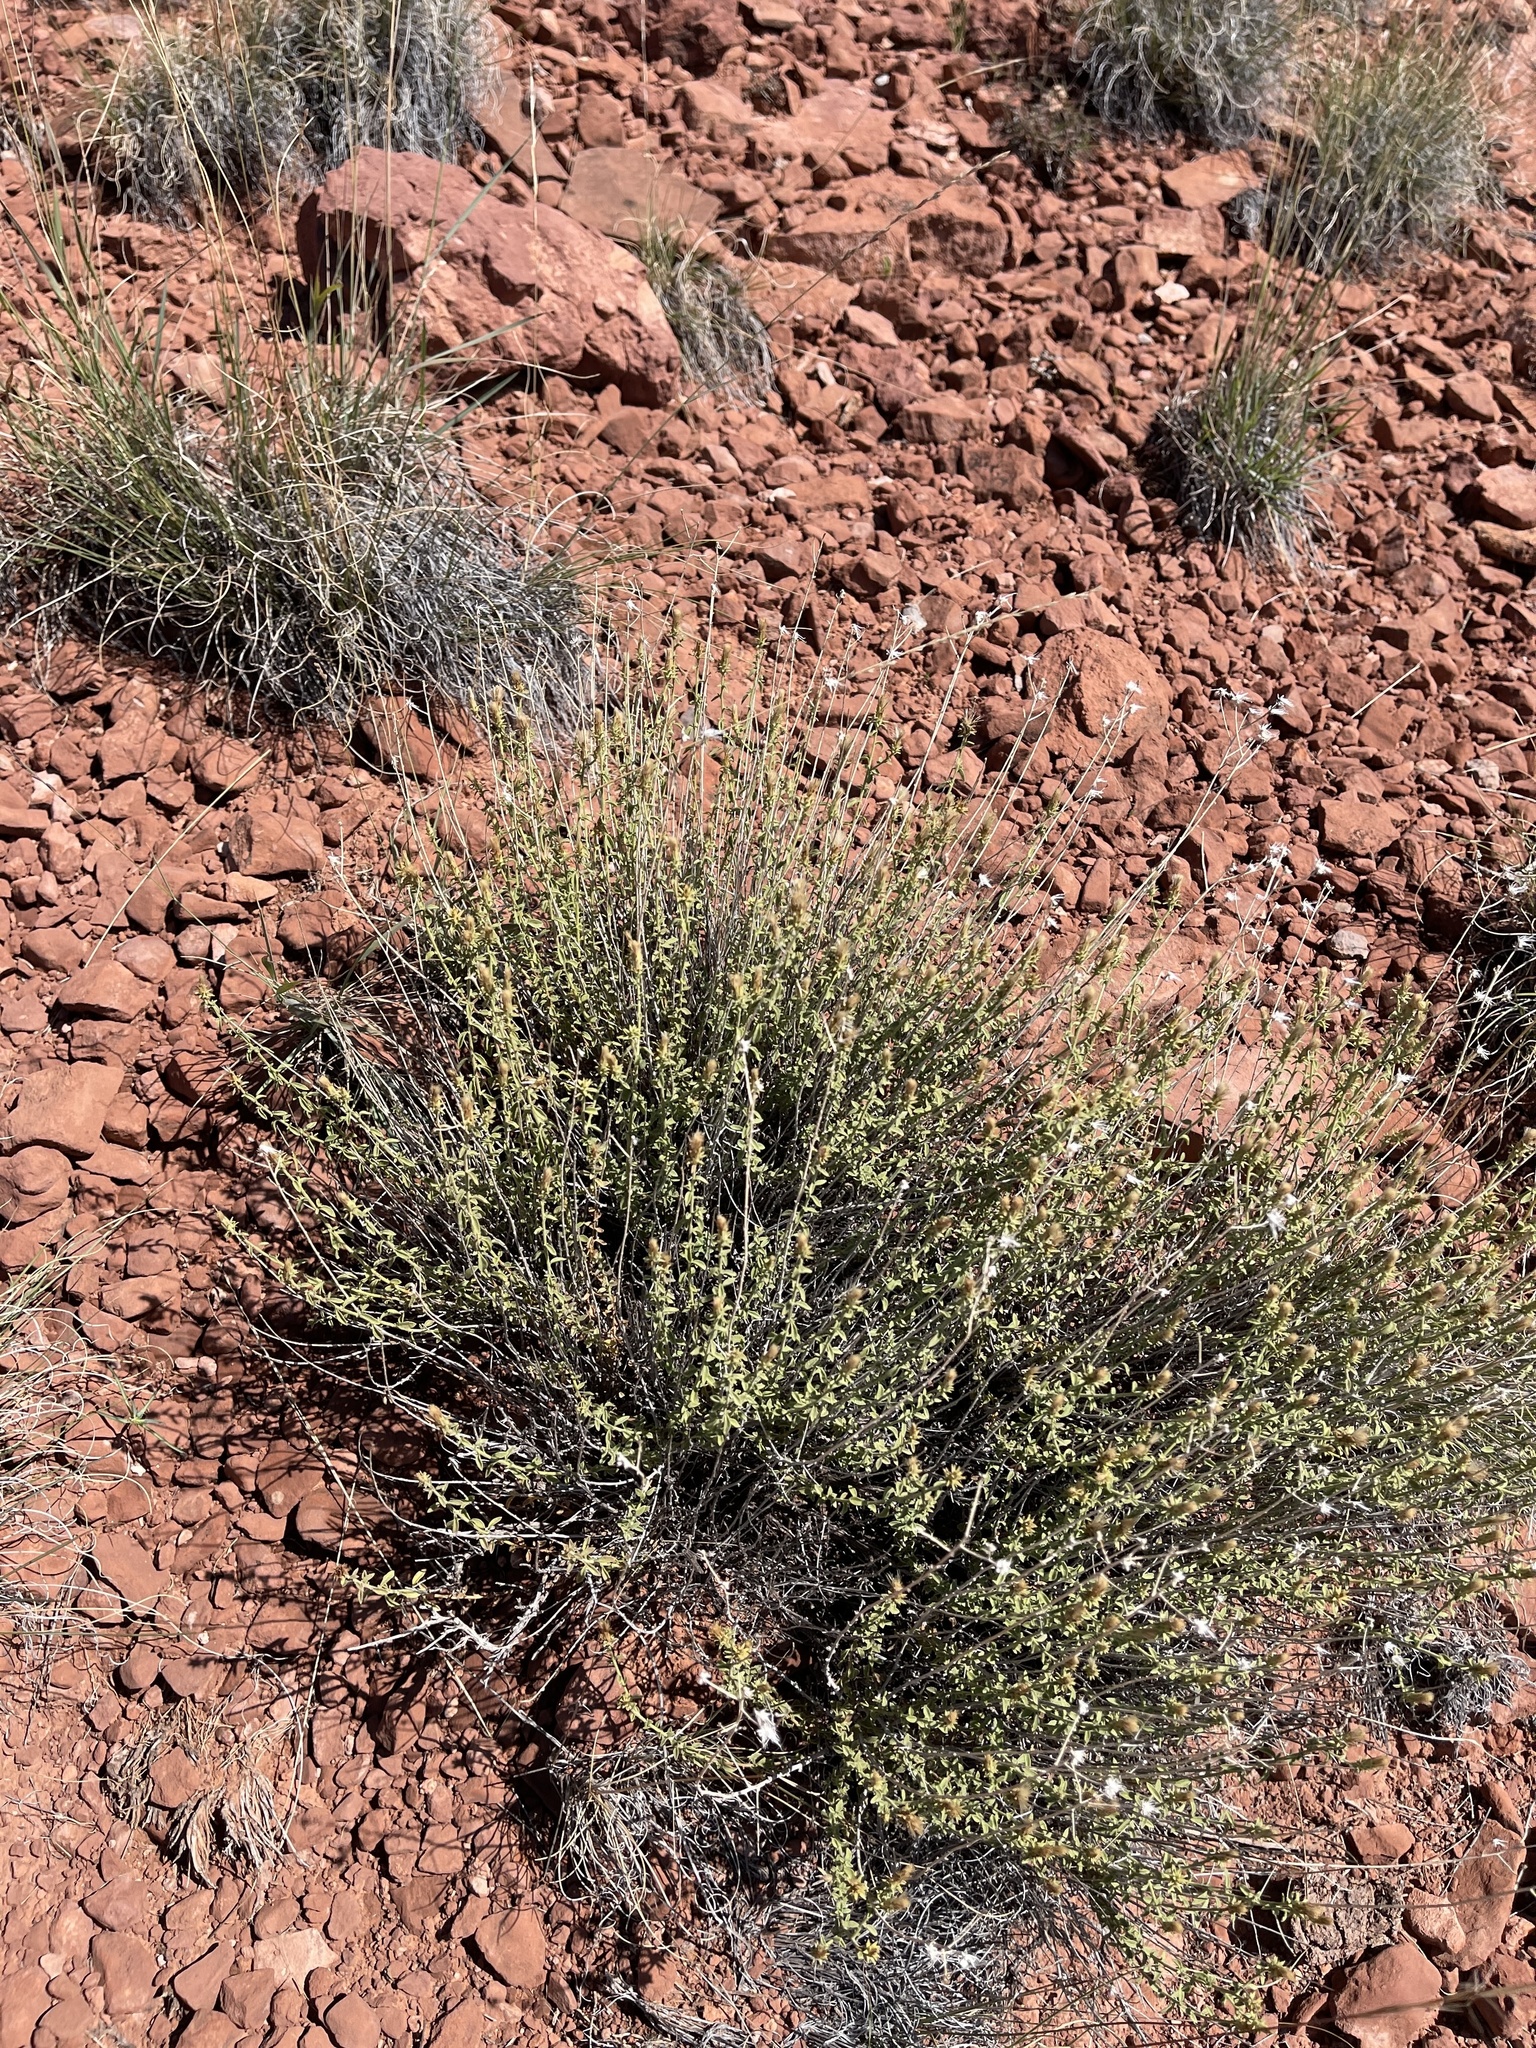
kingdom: Plantae
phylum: Tracheophyta
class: Magnoliopsida
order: Asterales
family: Asteraceae
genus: Isocoma
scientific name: Isocoma acradenia
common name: Alkali jimmyweed
